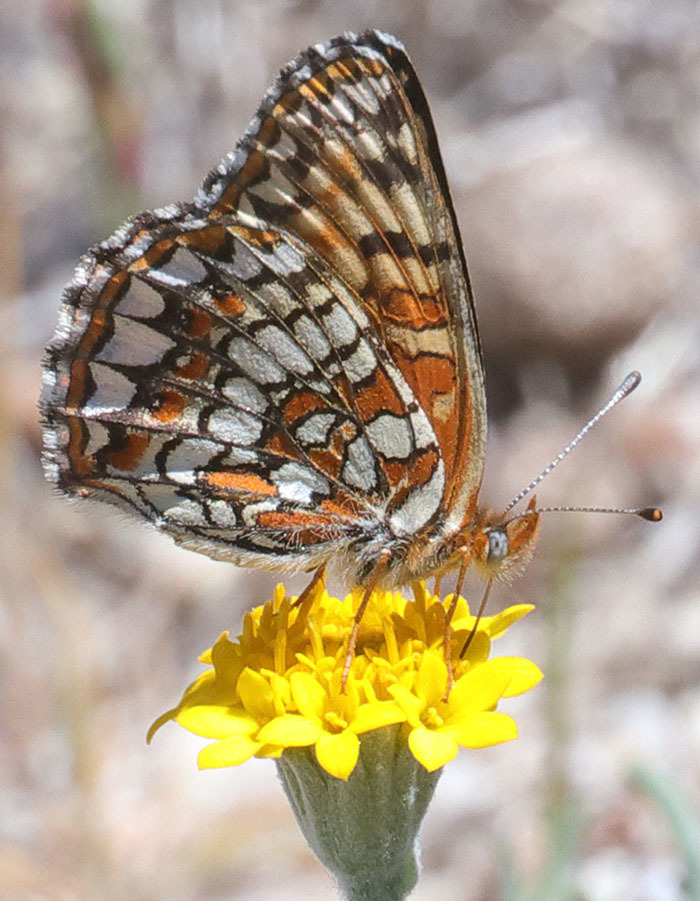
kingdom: Animalia
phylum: Arthropoda
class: Insecta
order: Lepidoptera
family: Nymphalidae
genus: Chlosyne
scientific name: Chlosyne gabbii
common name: Gabb's checkerspot
